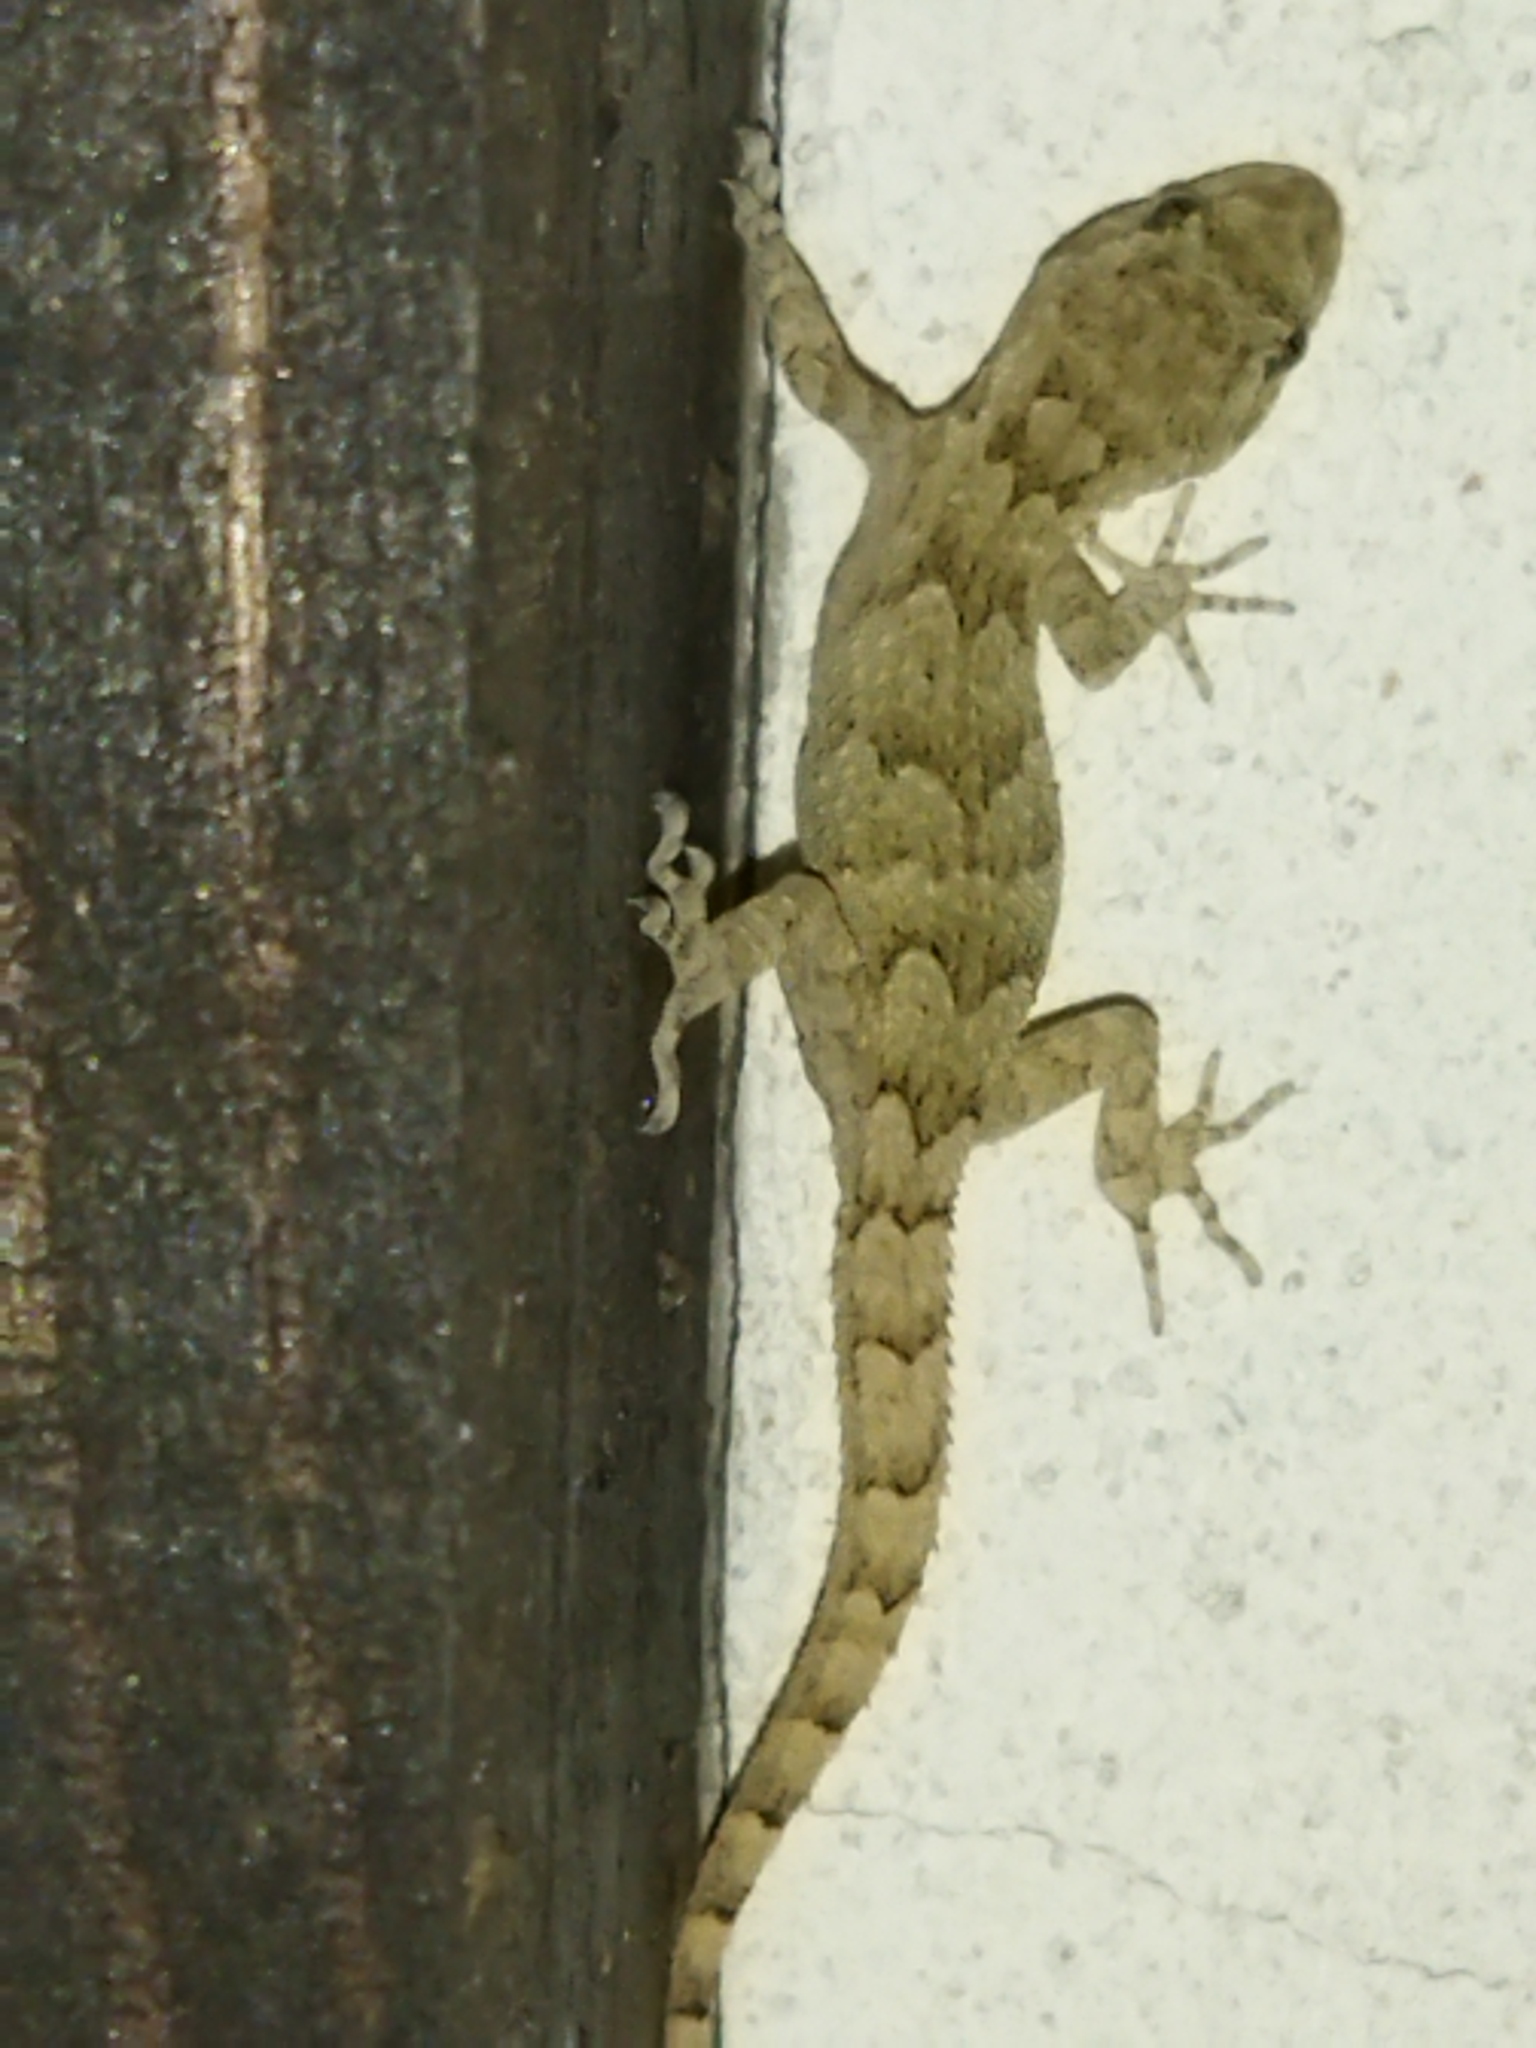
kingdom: Animalia
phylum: Chordata
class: Squamata
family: Gekkonidae
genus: Mediodactylus
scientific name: Mediodactylus kotschyi
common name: Kotschy's gecko
